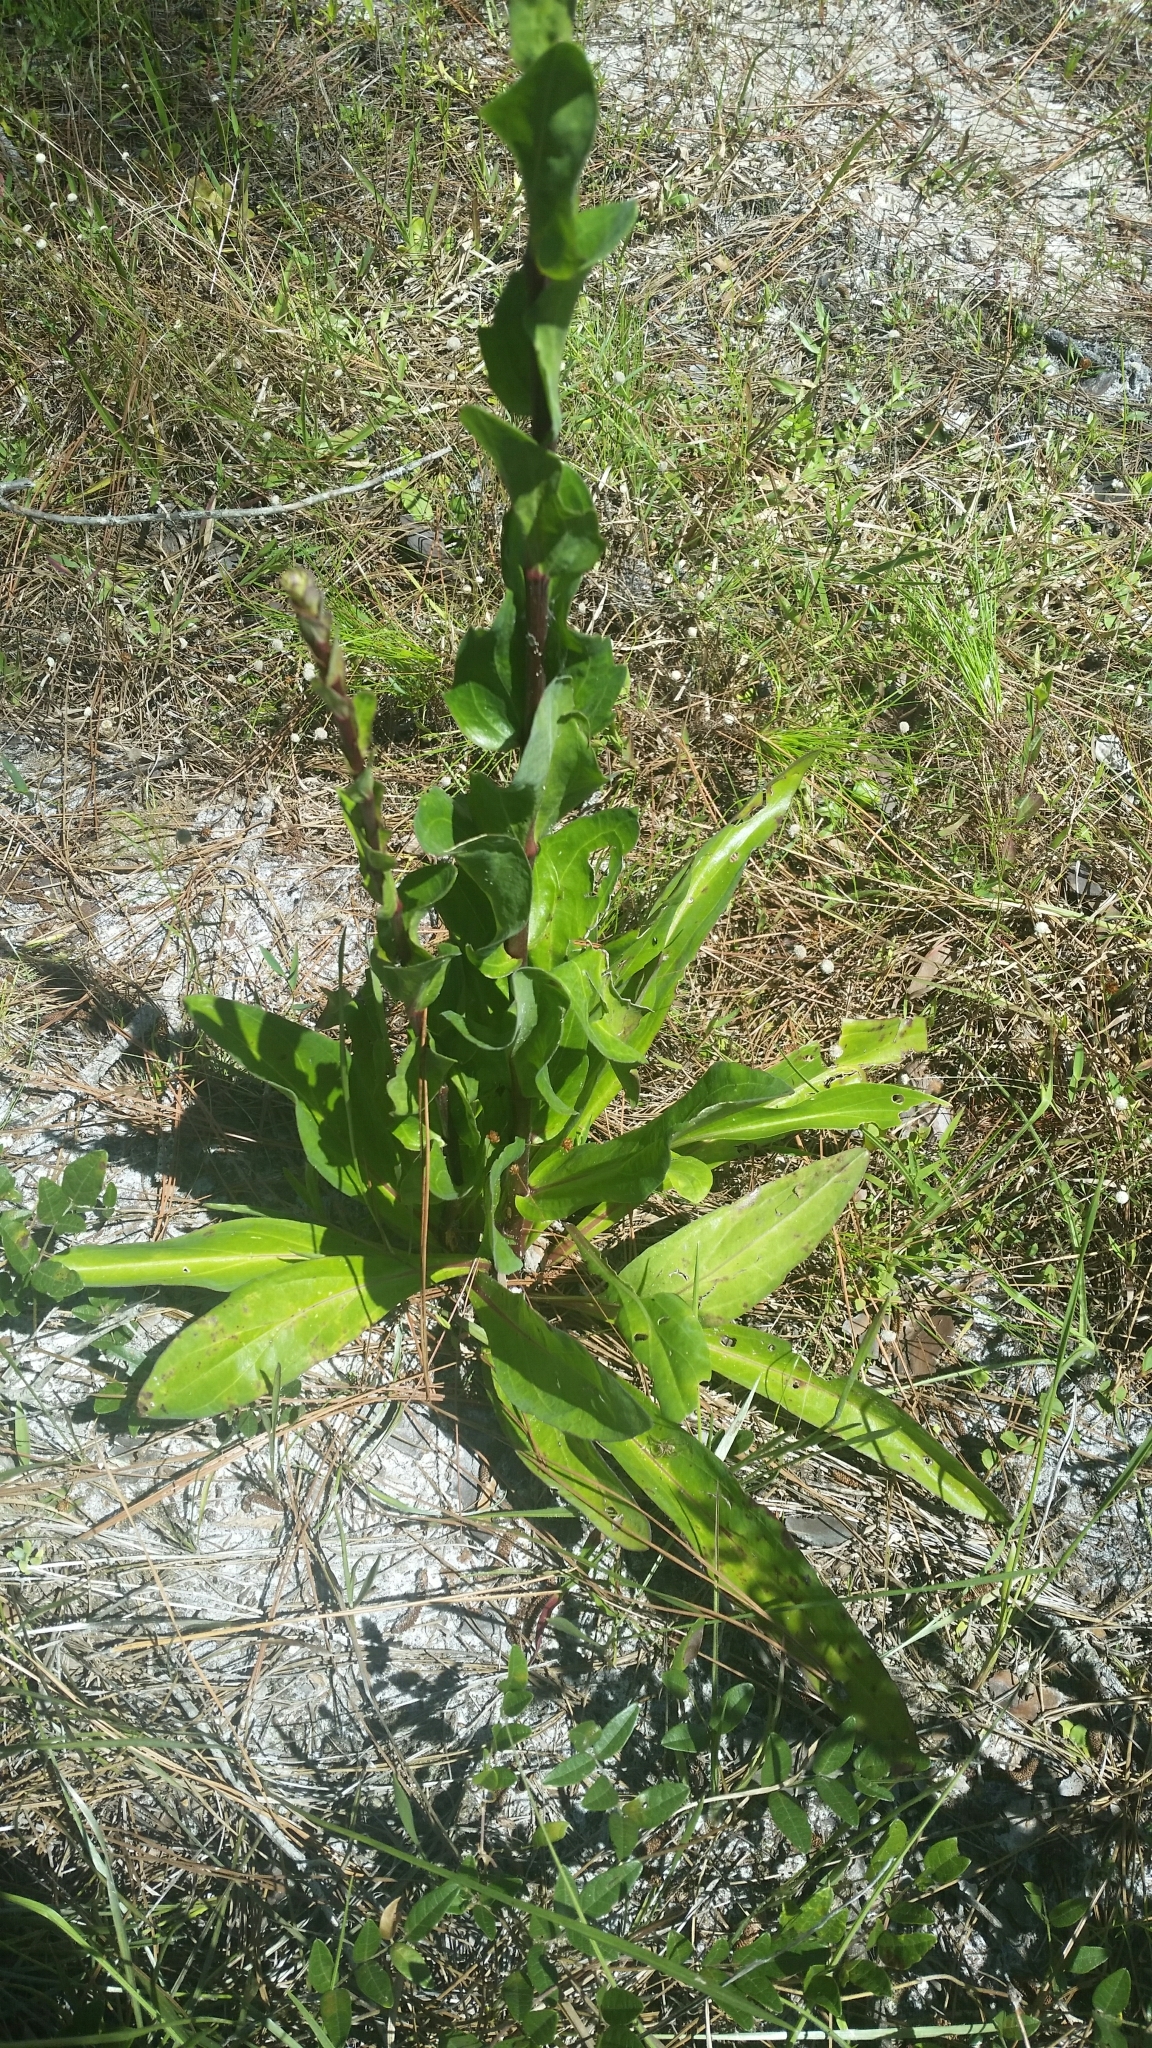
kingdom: Plantae
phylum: Tracheophyta
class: Magnoliopsida
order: Asterales
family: Asteraceae
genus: Carphephorus
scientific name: Carphephorus odoratissimus
